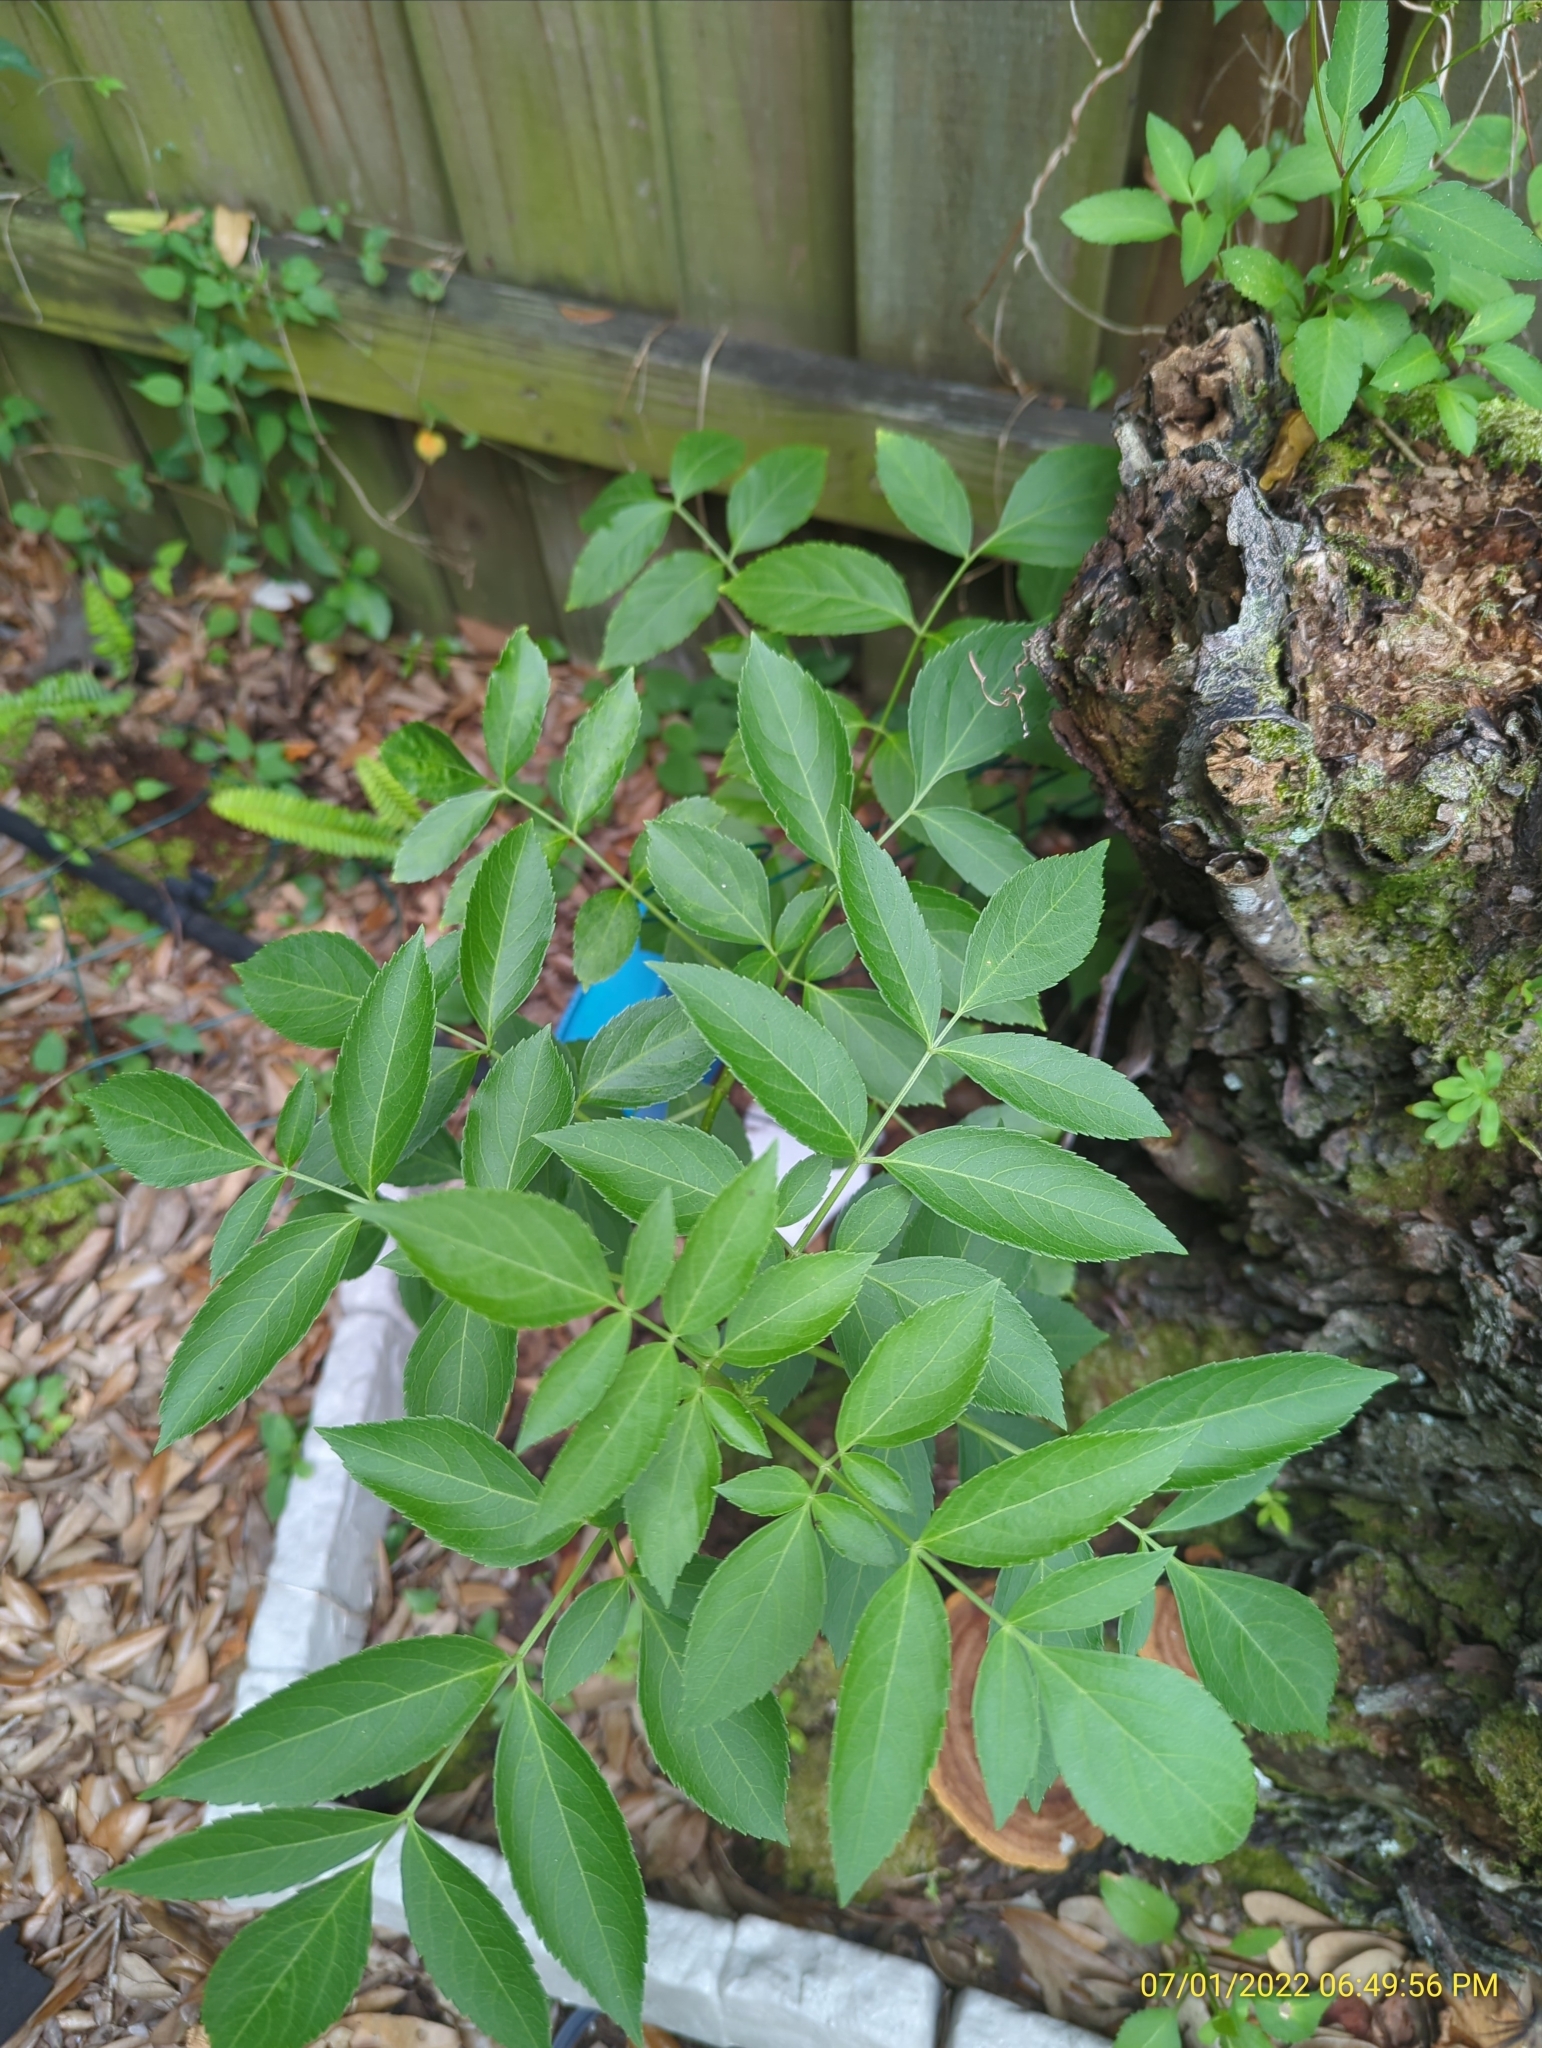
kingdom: Plantae
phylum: Tracheophyta
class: Magnoliopsida
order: Dipsacales
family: Viburnaceae
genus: Sambucus
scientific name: Sambucus canadensis
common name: American elder
